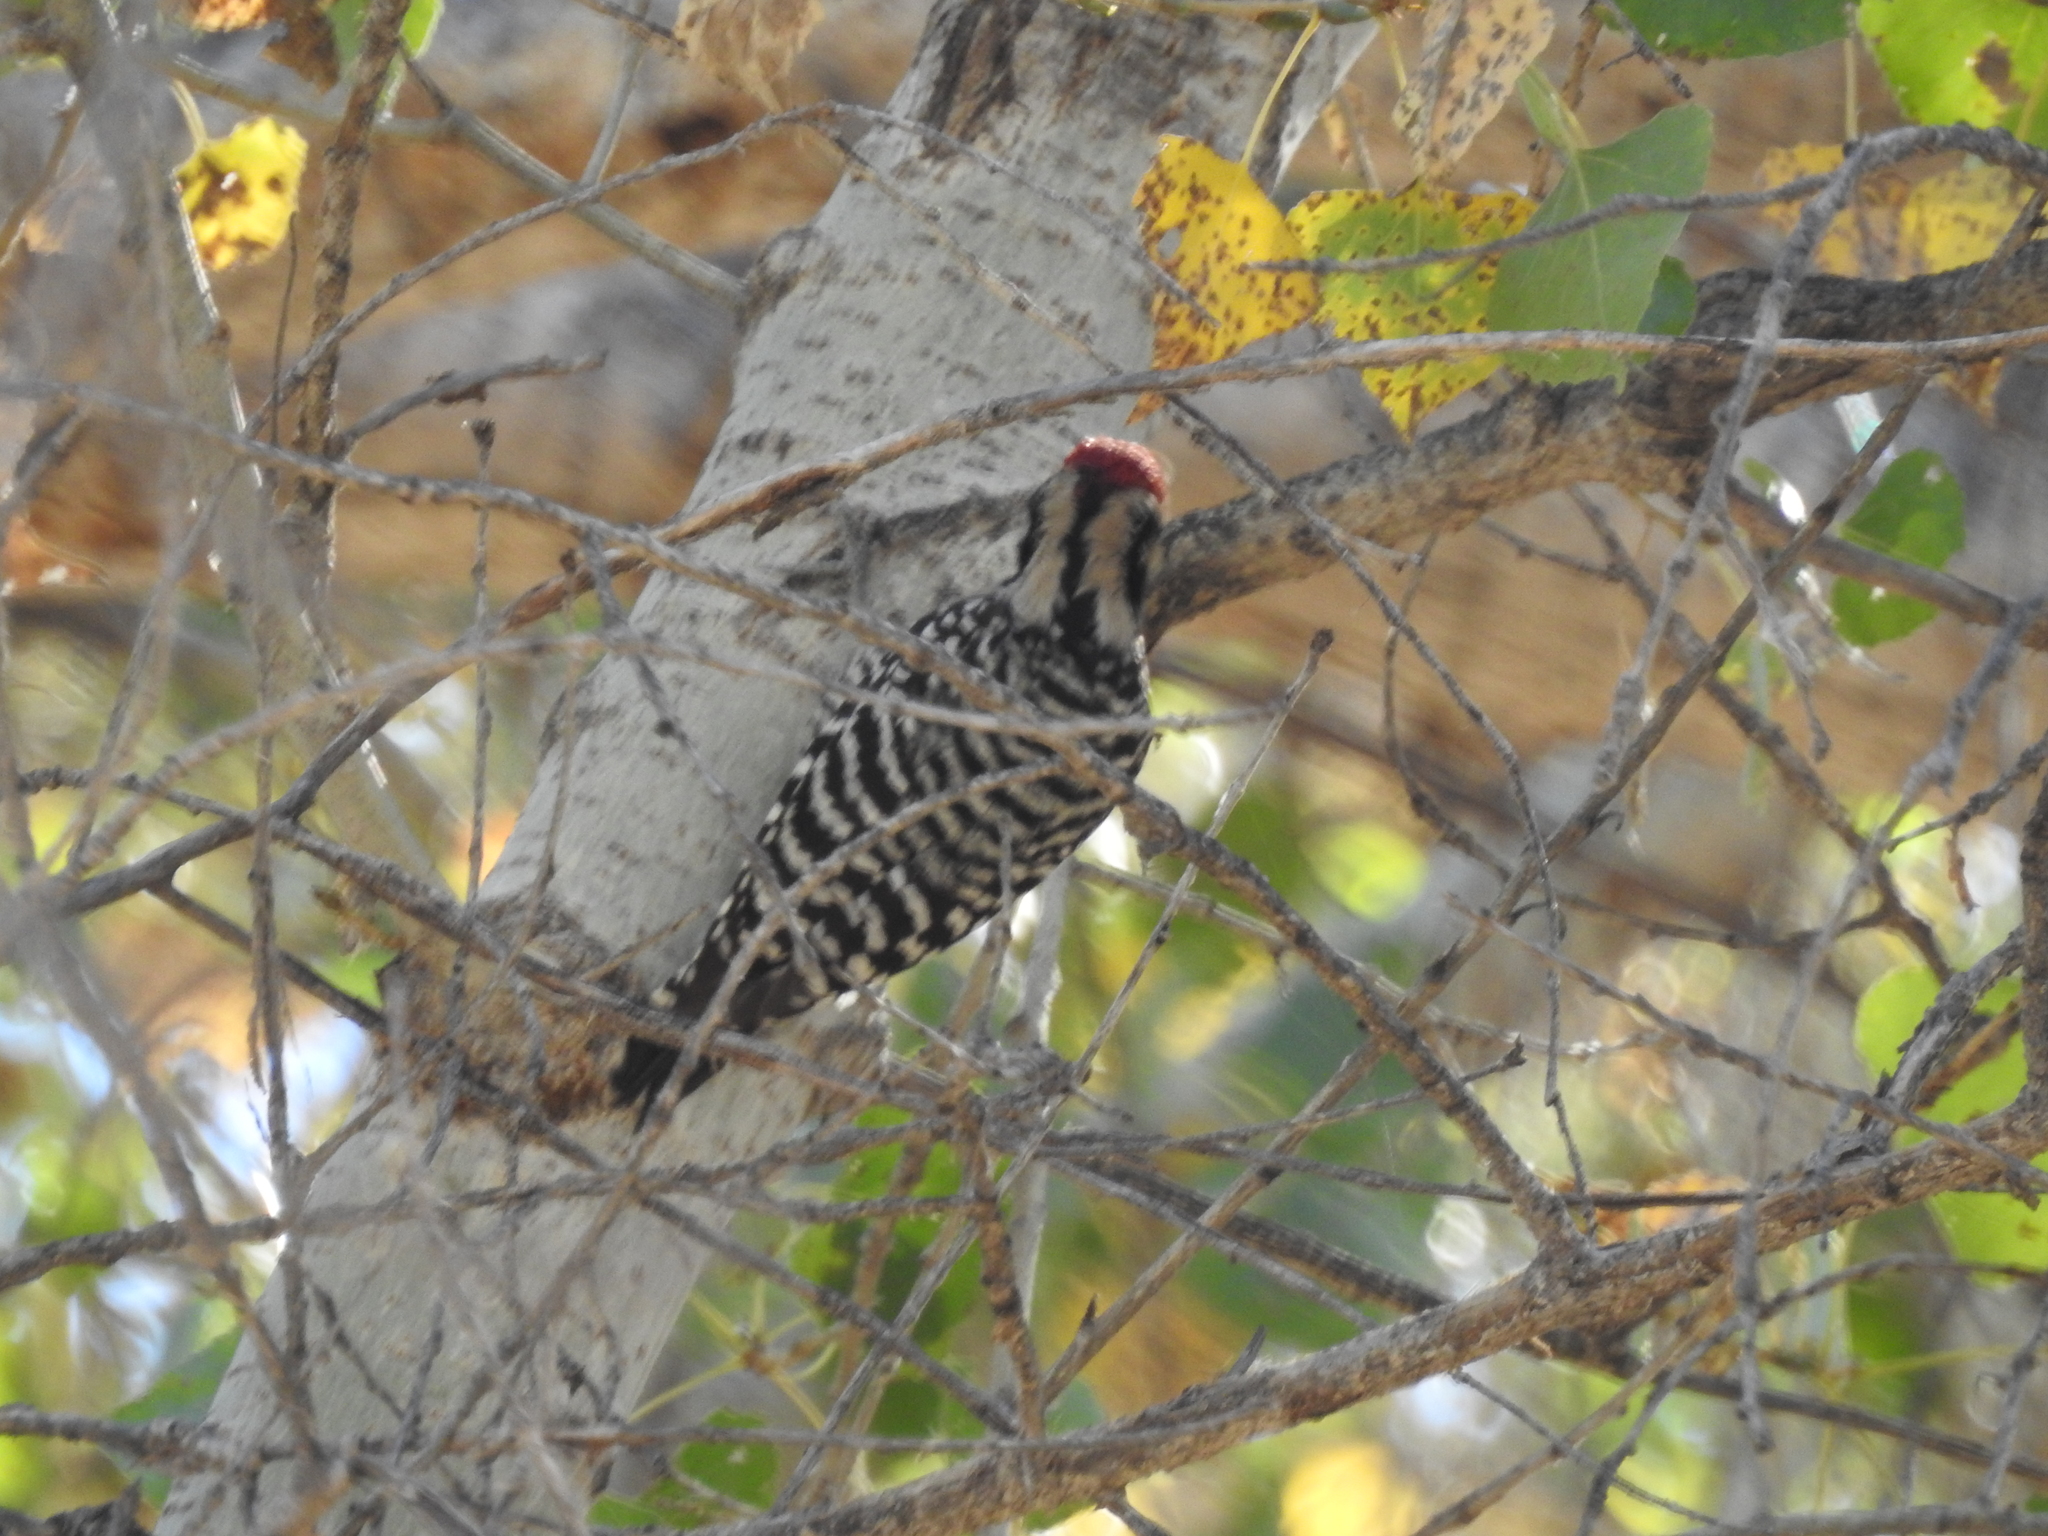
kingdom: Animalia
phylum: Chordata
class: Aves
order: Piciformes
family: Picidae
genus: Dryobates
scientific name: Dryobates scalaris
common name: Ladder-backed woodpecker
